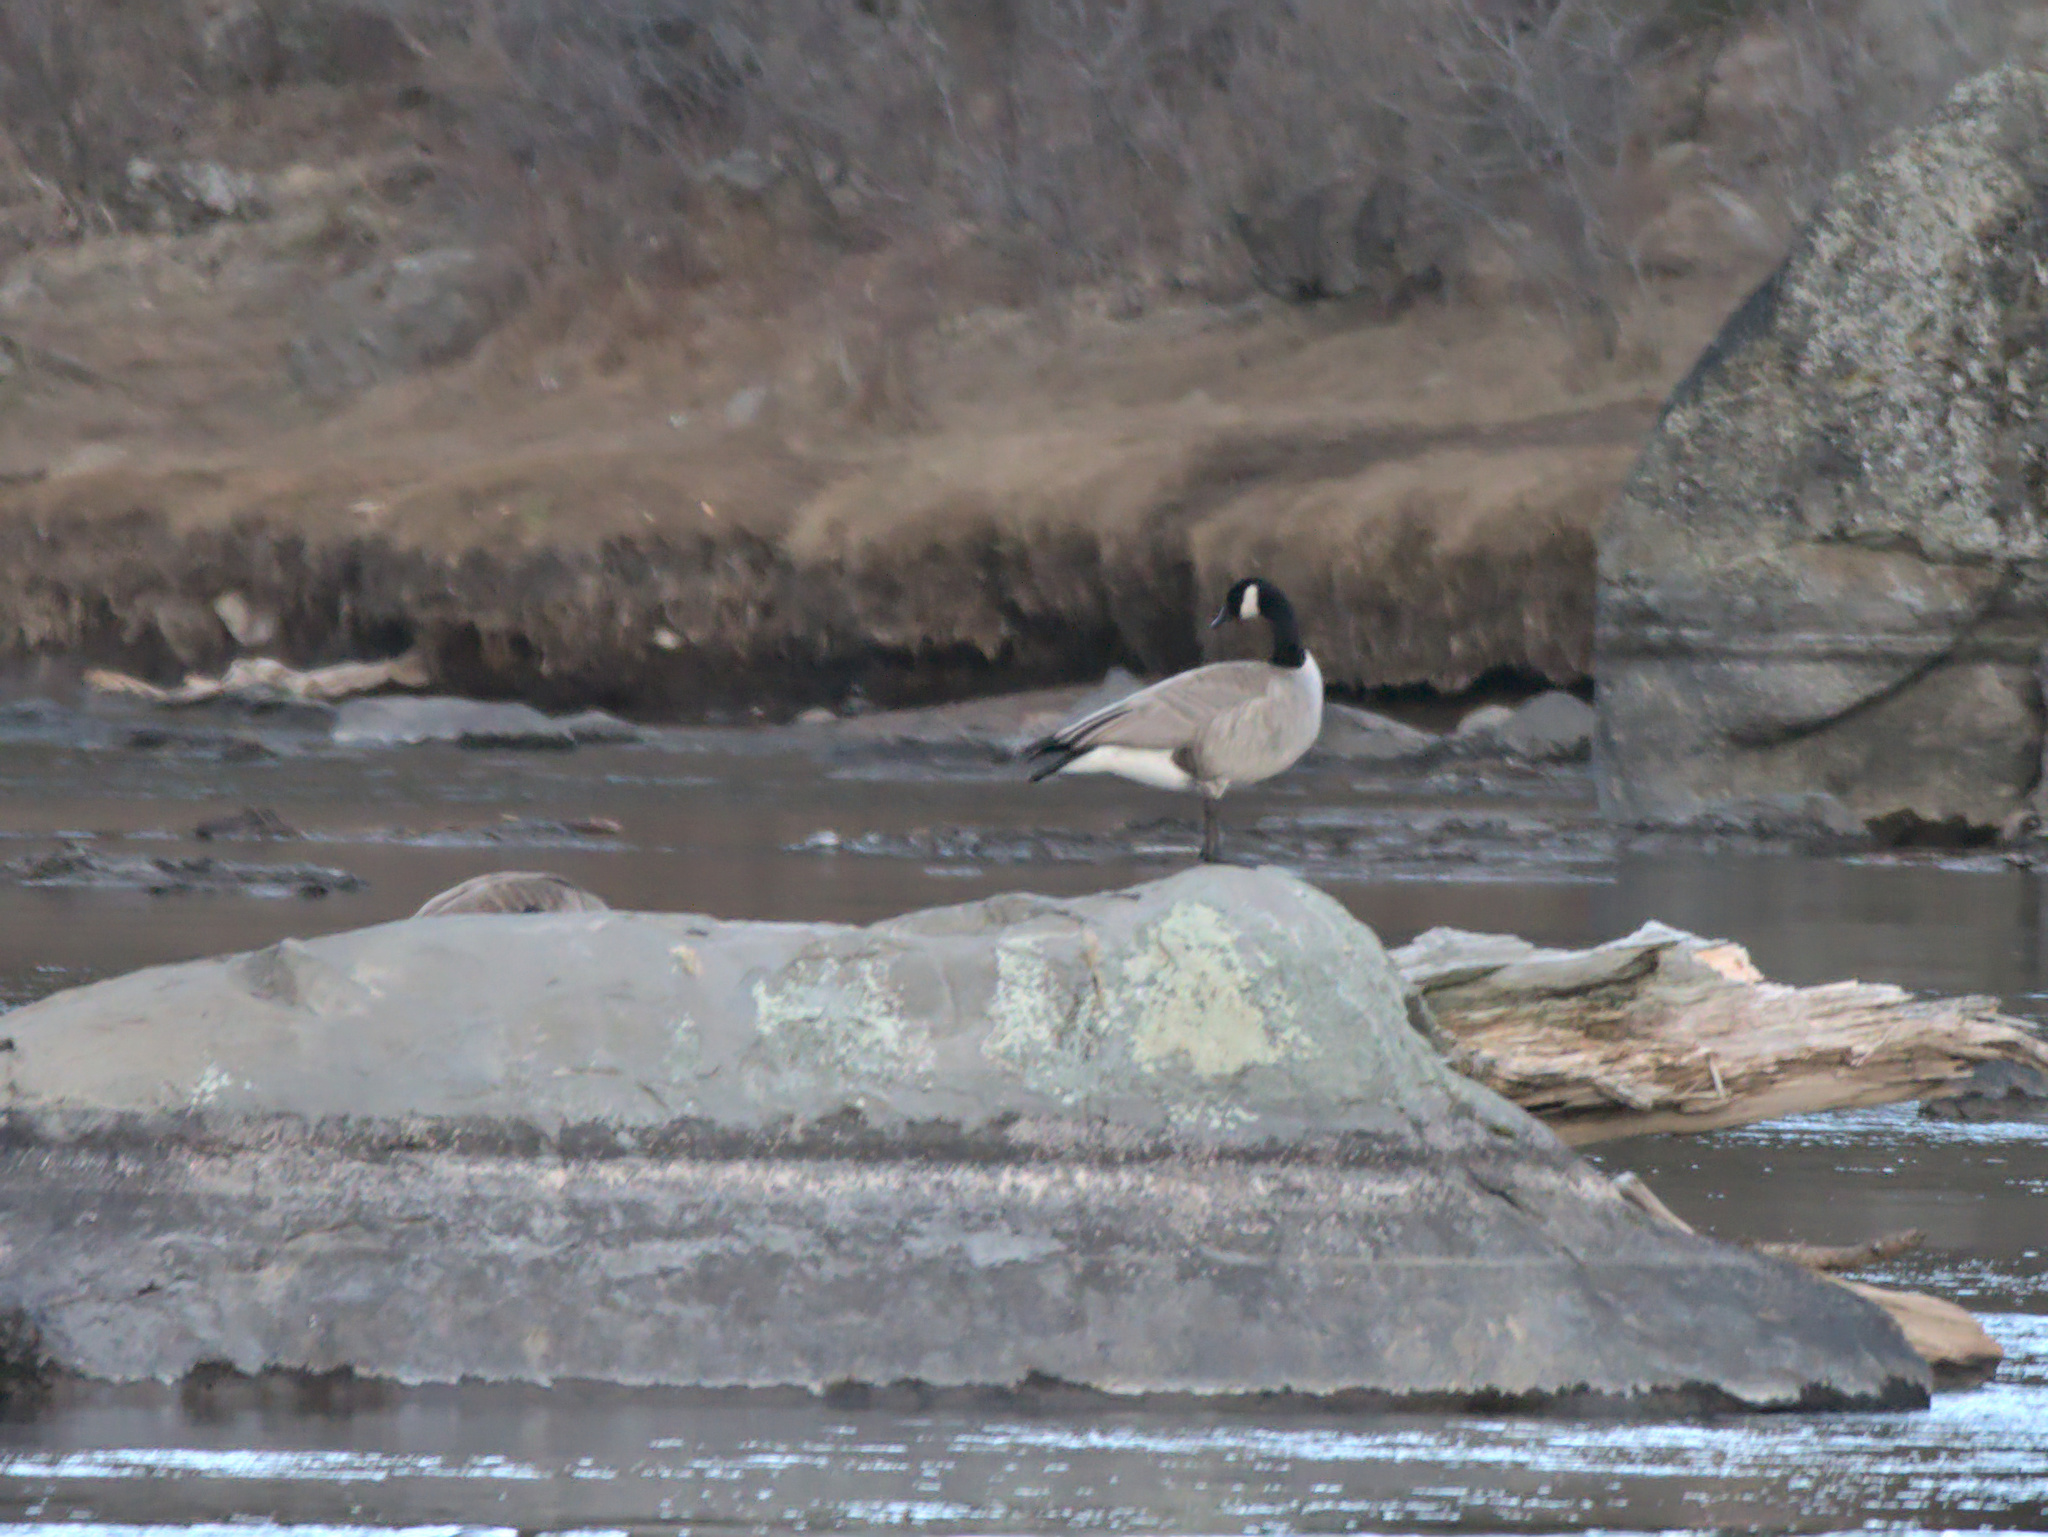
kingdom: Animalia
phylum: Chordata
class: Aves
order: Anseriformes
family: Anatidae
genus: Branta
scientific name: Branta canadensis
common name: Canada goose
